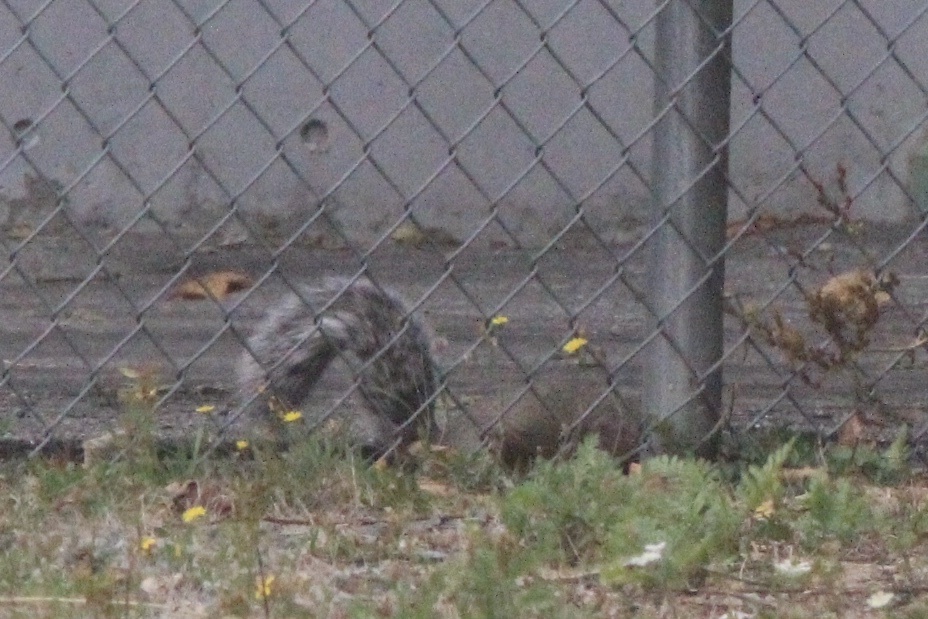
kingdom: Animalia
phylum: Chordata
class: Mammalia
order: Rodentia
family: Sciuridae
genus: Sciurus
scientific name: Sciurus carolinensis
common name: Eastern gray squirrel
